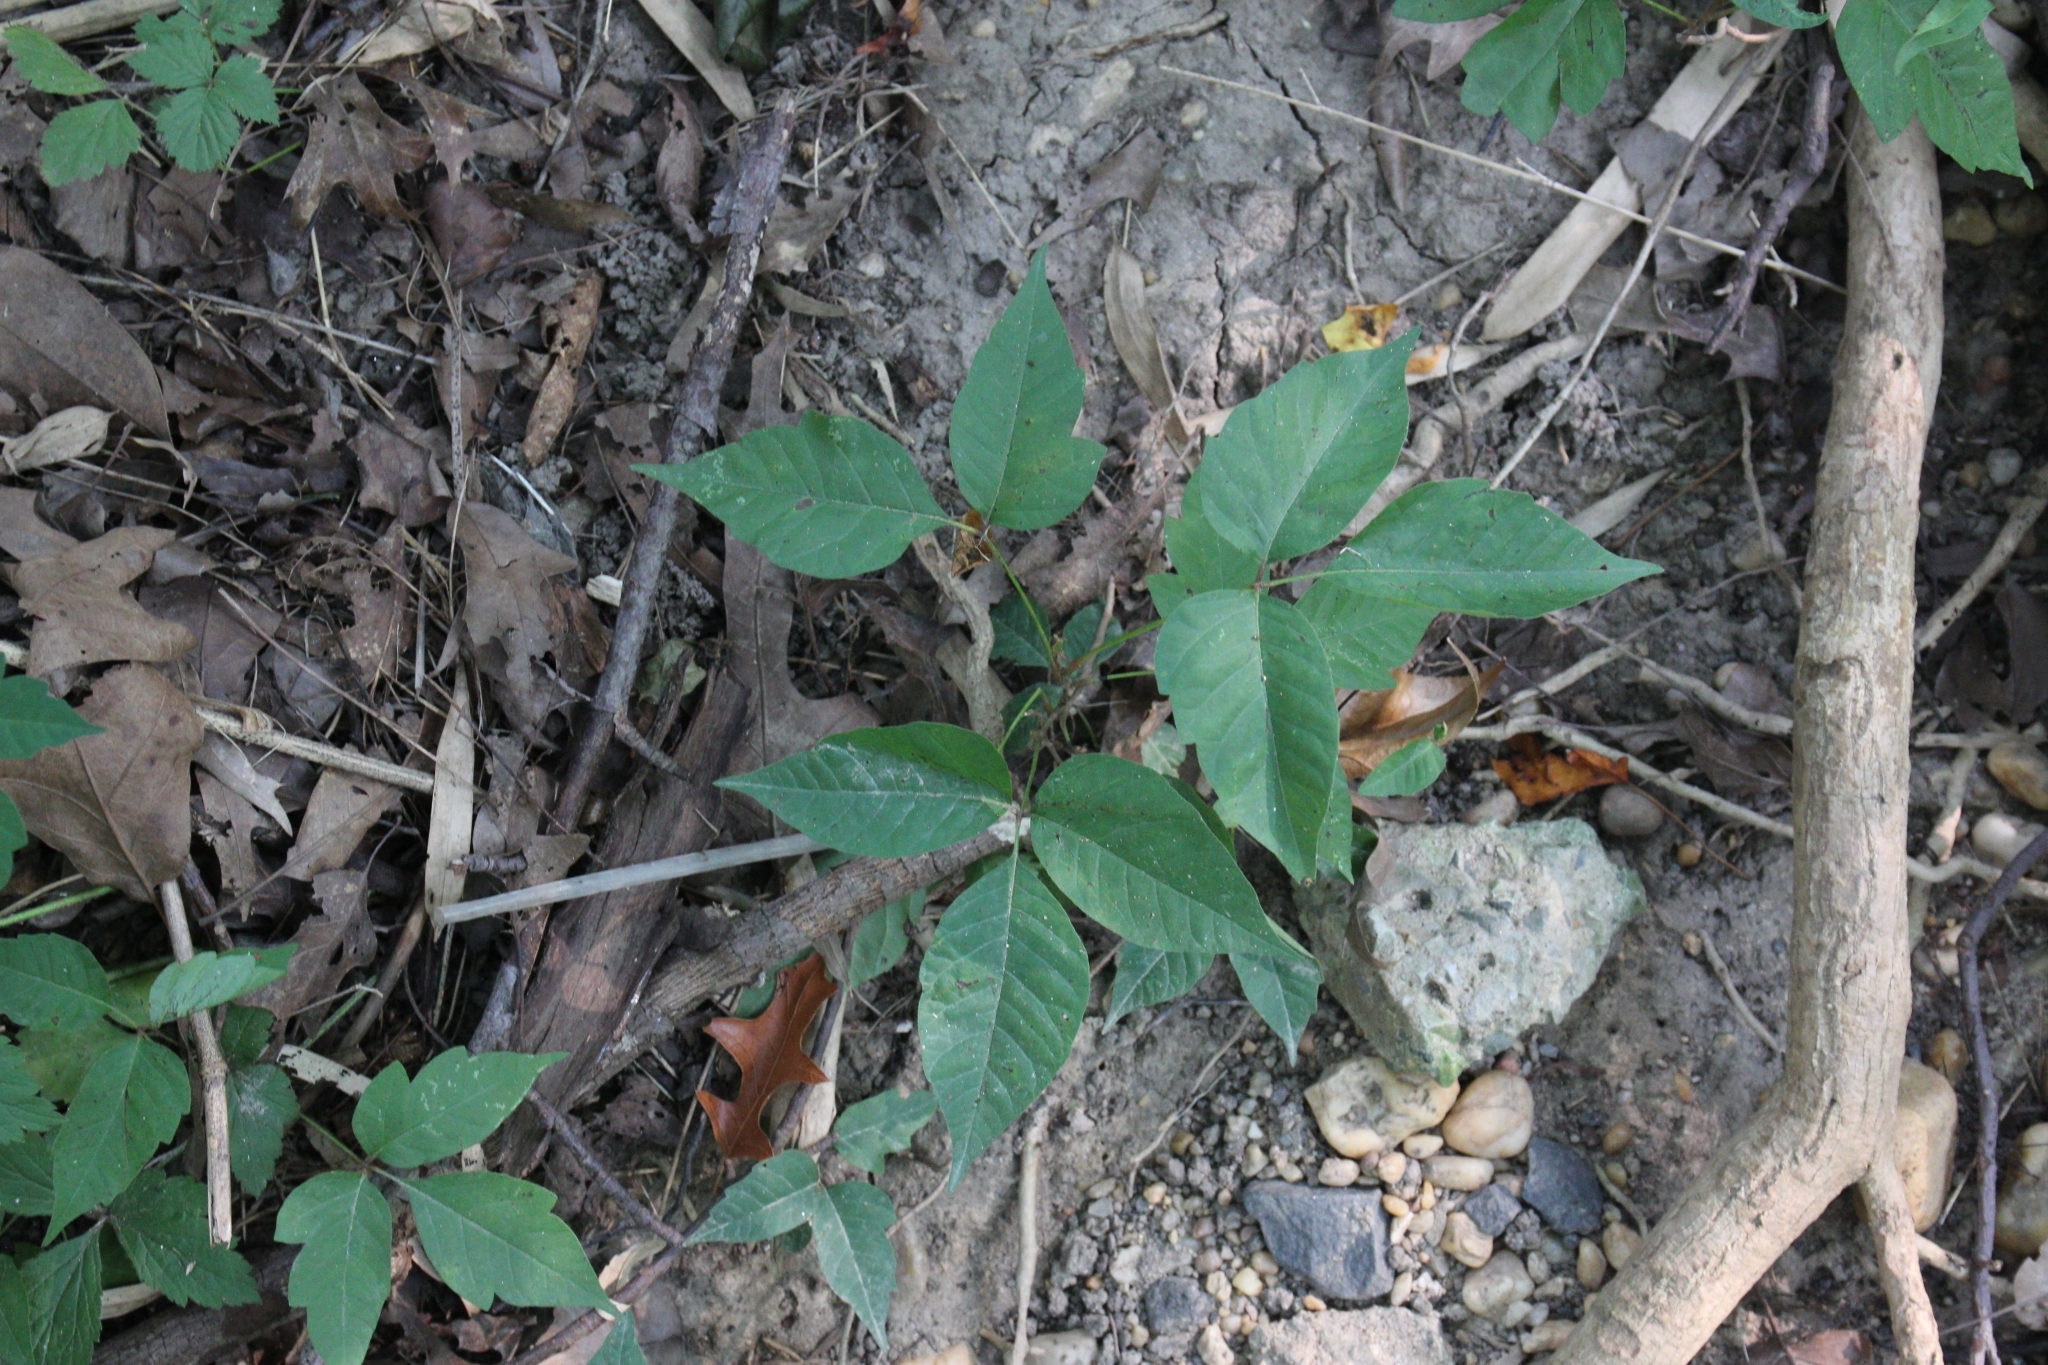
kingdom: Plantae
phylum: Tracheophyta
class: Magnoliopsida
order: Sapindales
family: Anacardiaceae
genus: Toxicodendron
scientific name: Toxicodendron radicans
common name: Poison ivy
